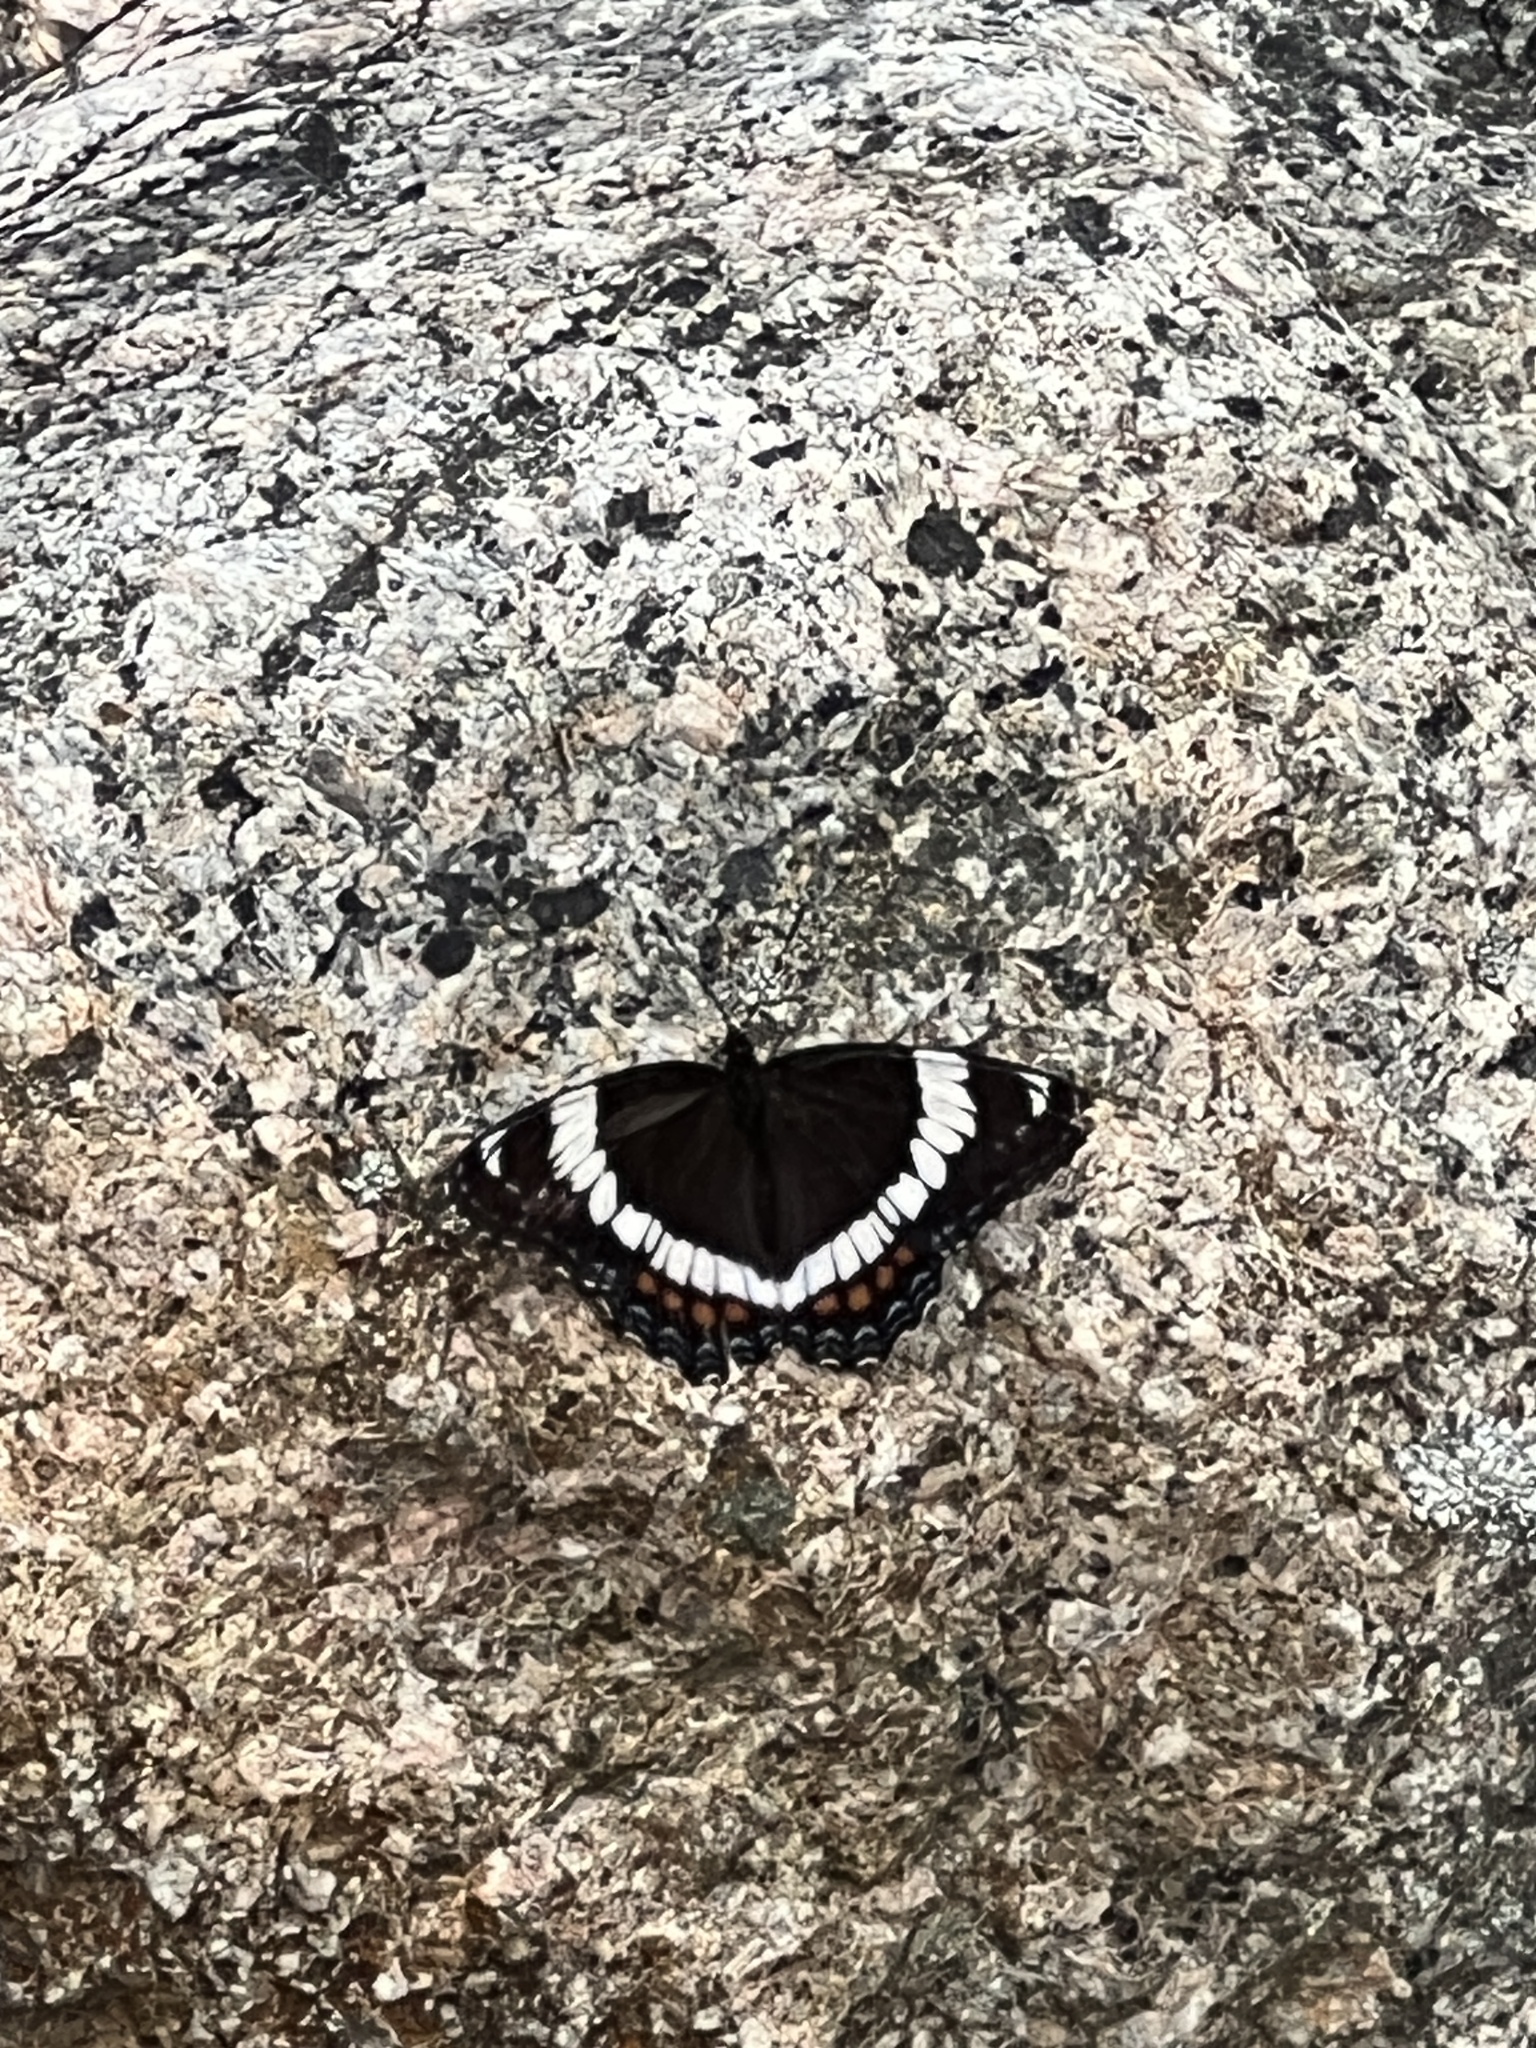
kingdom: Animalia
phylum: Arthropoda
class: Insecta
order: Lepidoptera
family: Nymphalidae
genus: Limenitis
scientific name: Limenitis arthemis
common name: Red-spotted admiral
